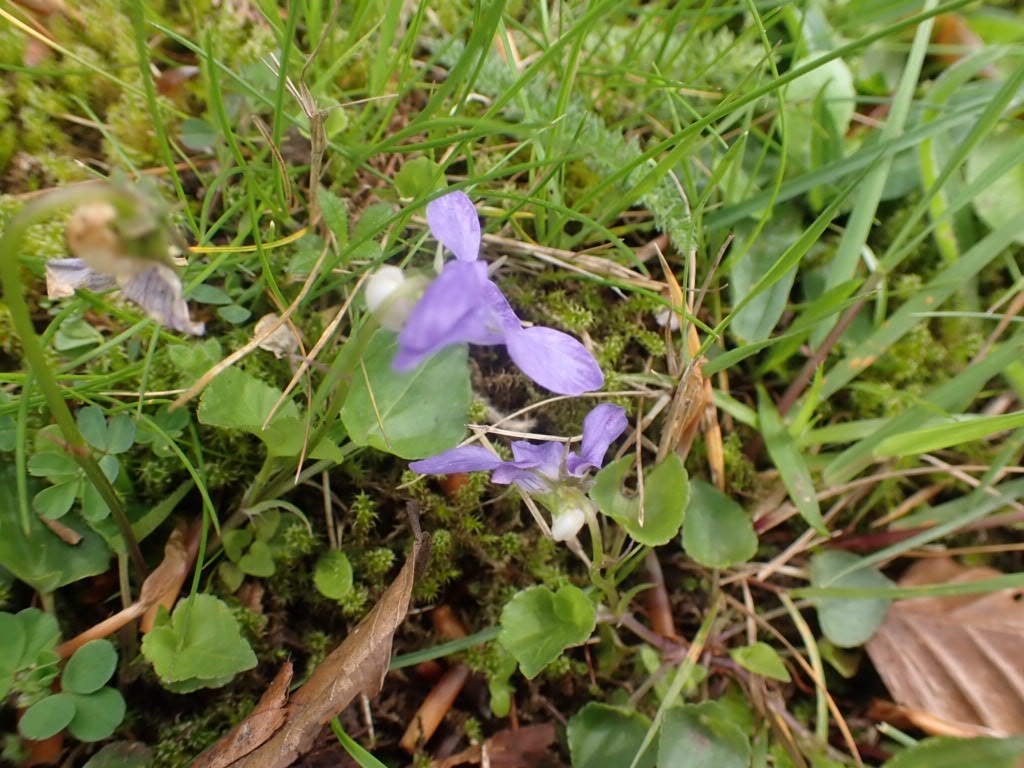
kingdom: Plantae
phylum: Tracheophyta
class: Magnoliopsida
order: Malpighiales
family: Violaceae
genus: Viola
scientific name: Viola riviniana
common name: Common dog-violet
